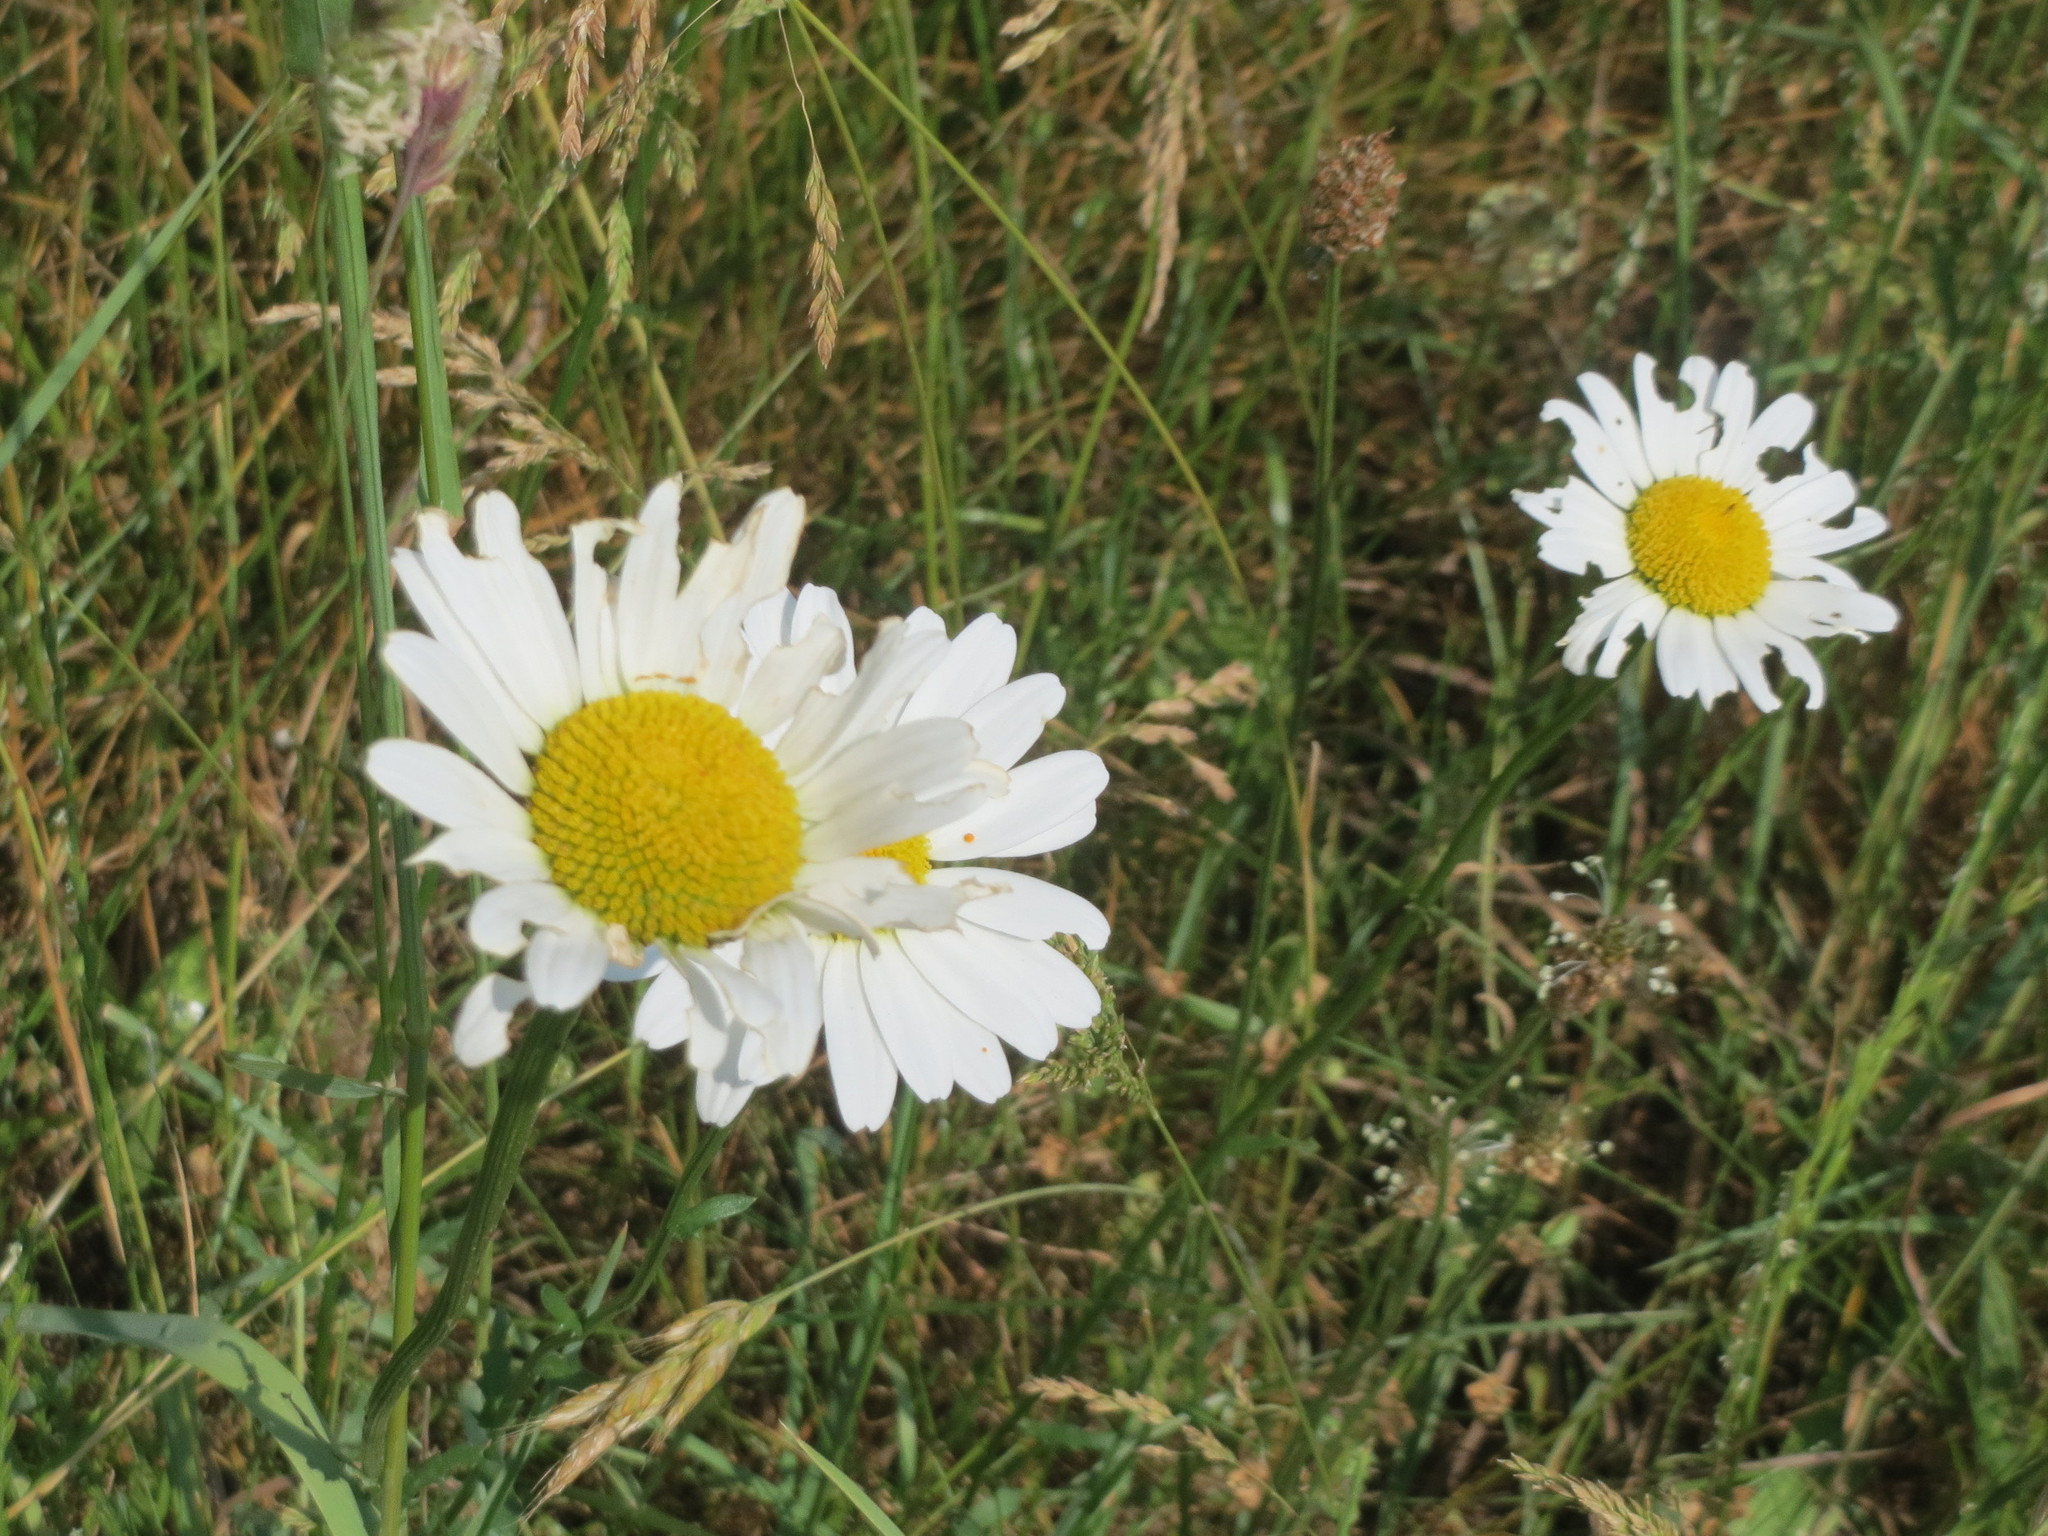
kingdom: Plantae
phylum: Tracheophyta
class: Magnoliopsida
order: Asterales
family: Asteraceae
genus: Leucanthemum
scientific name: Leucanthemum vulgare
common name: Oxeye daisy
